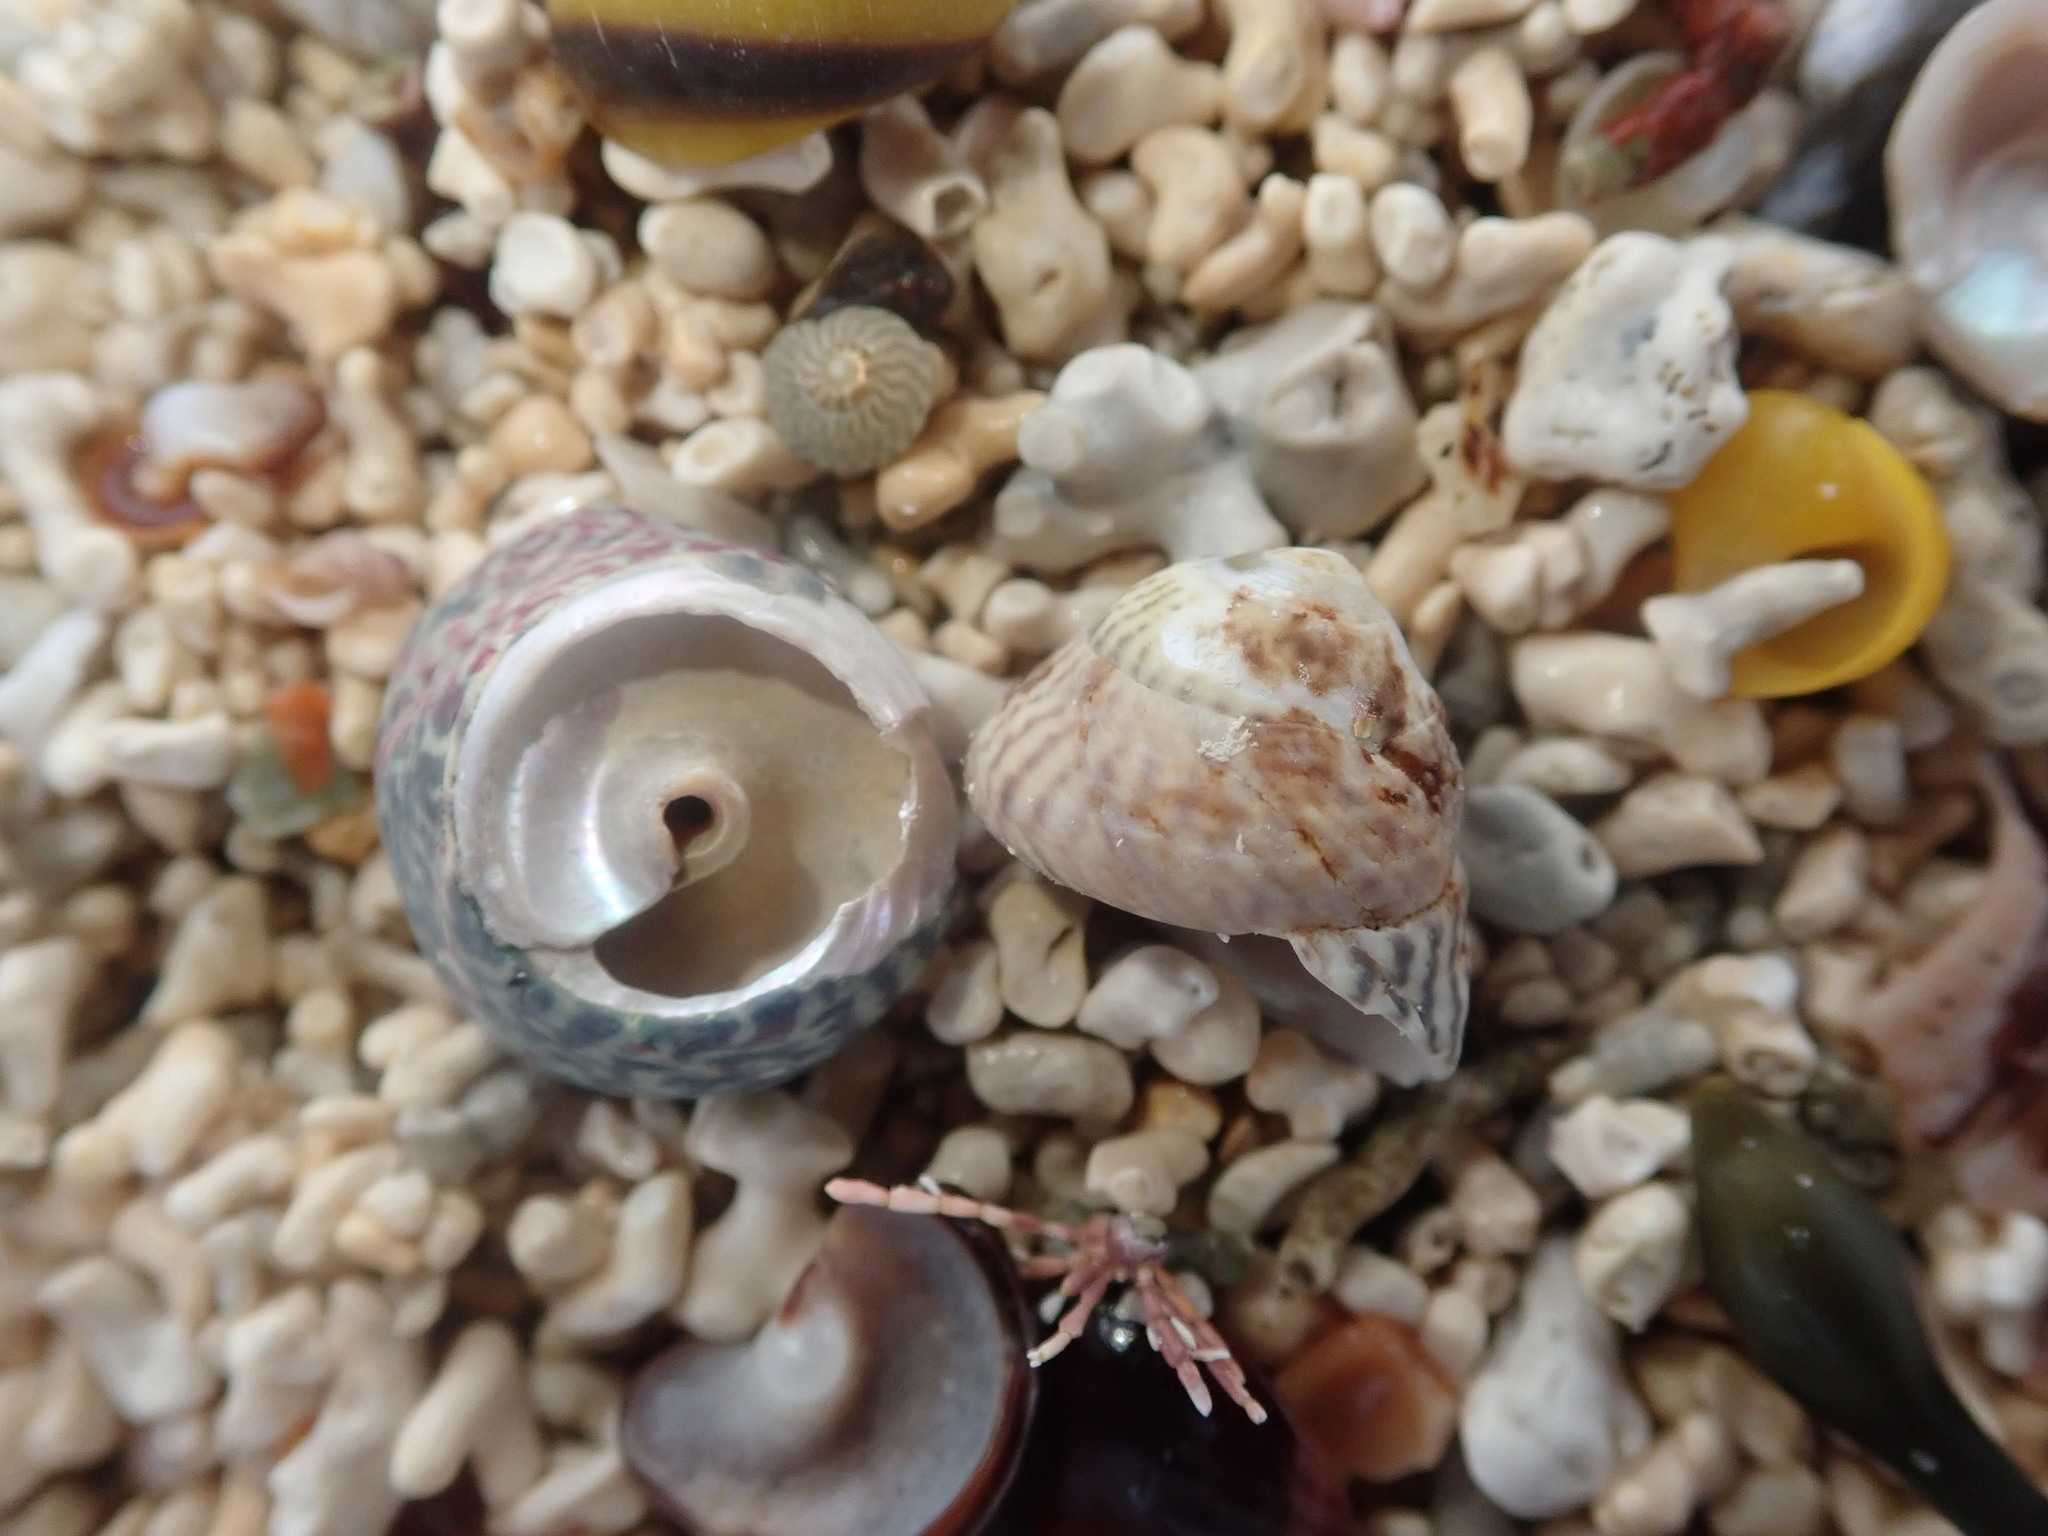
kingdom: Animalia
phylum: Mollusca
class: Gastropoda
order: Trochida
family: Trochidae
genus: Steromphala
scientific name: Steromphala umbilicalis
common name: Flat top shell
